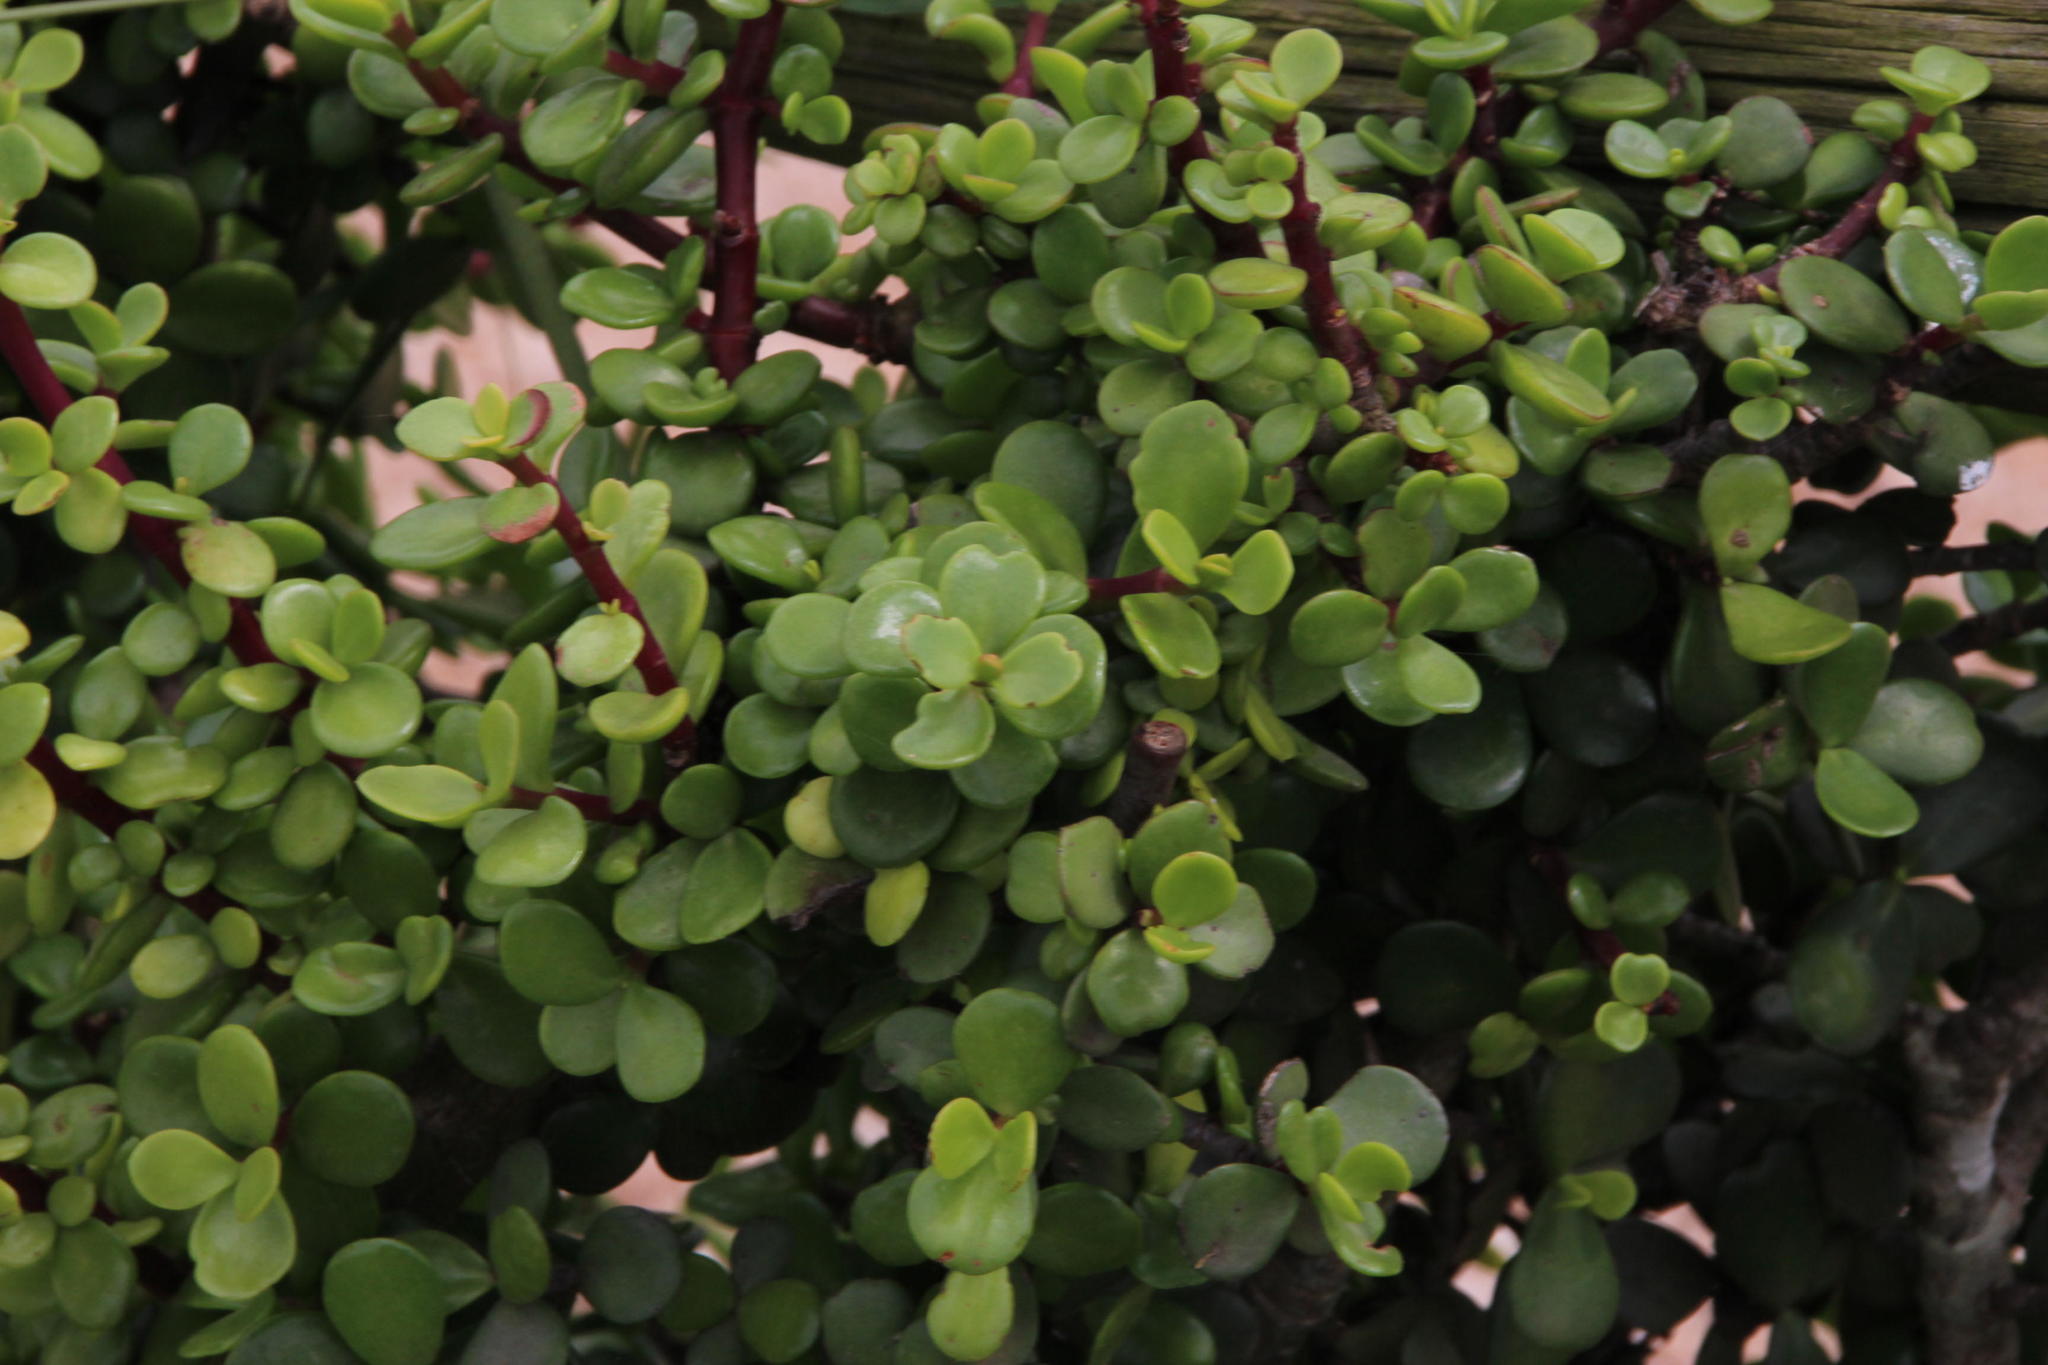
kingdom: Plantae
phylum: Tracheophyta
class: Magnoliopsida
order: Caryophyllales
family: Didiereaceae
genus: Portulacaria
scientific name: Portulacaria afra
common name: Elephant-bush
